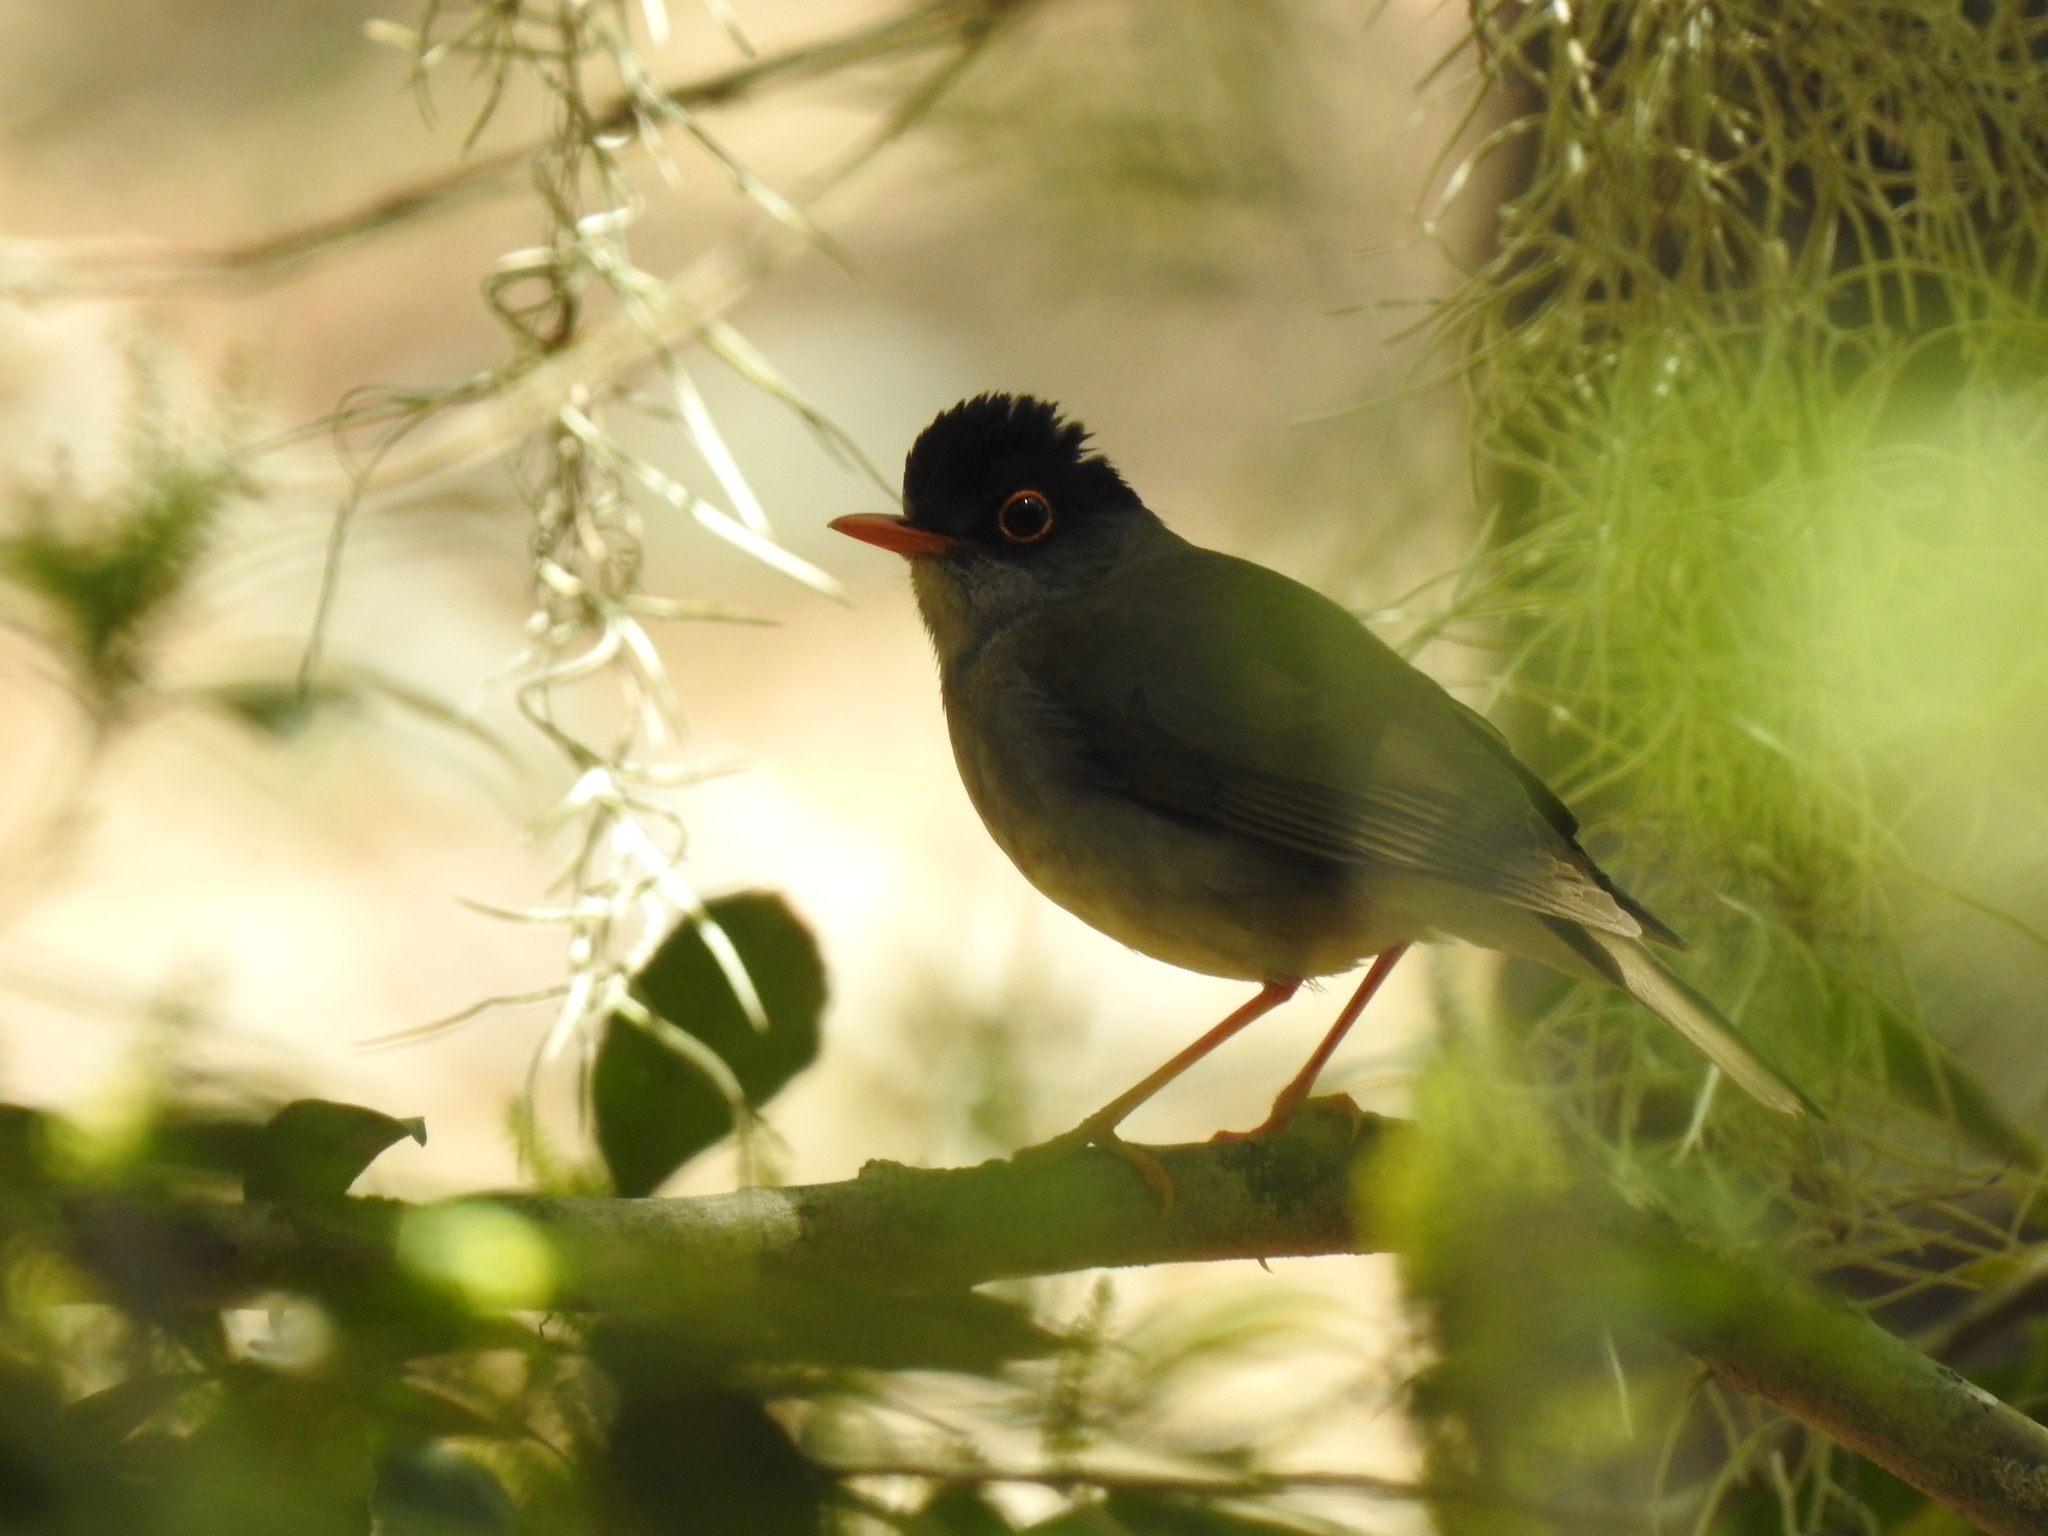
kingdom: Animalia
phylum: Chordata
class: Aves
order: Passeriformes
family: Turdidae
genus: Catharus
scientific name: Catharus mexicanus
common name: Black-headed nightingale-thrush
